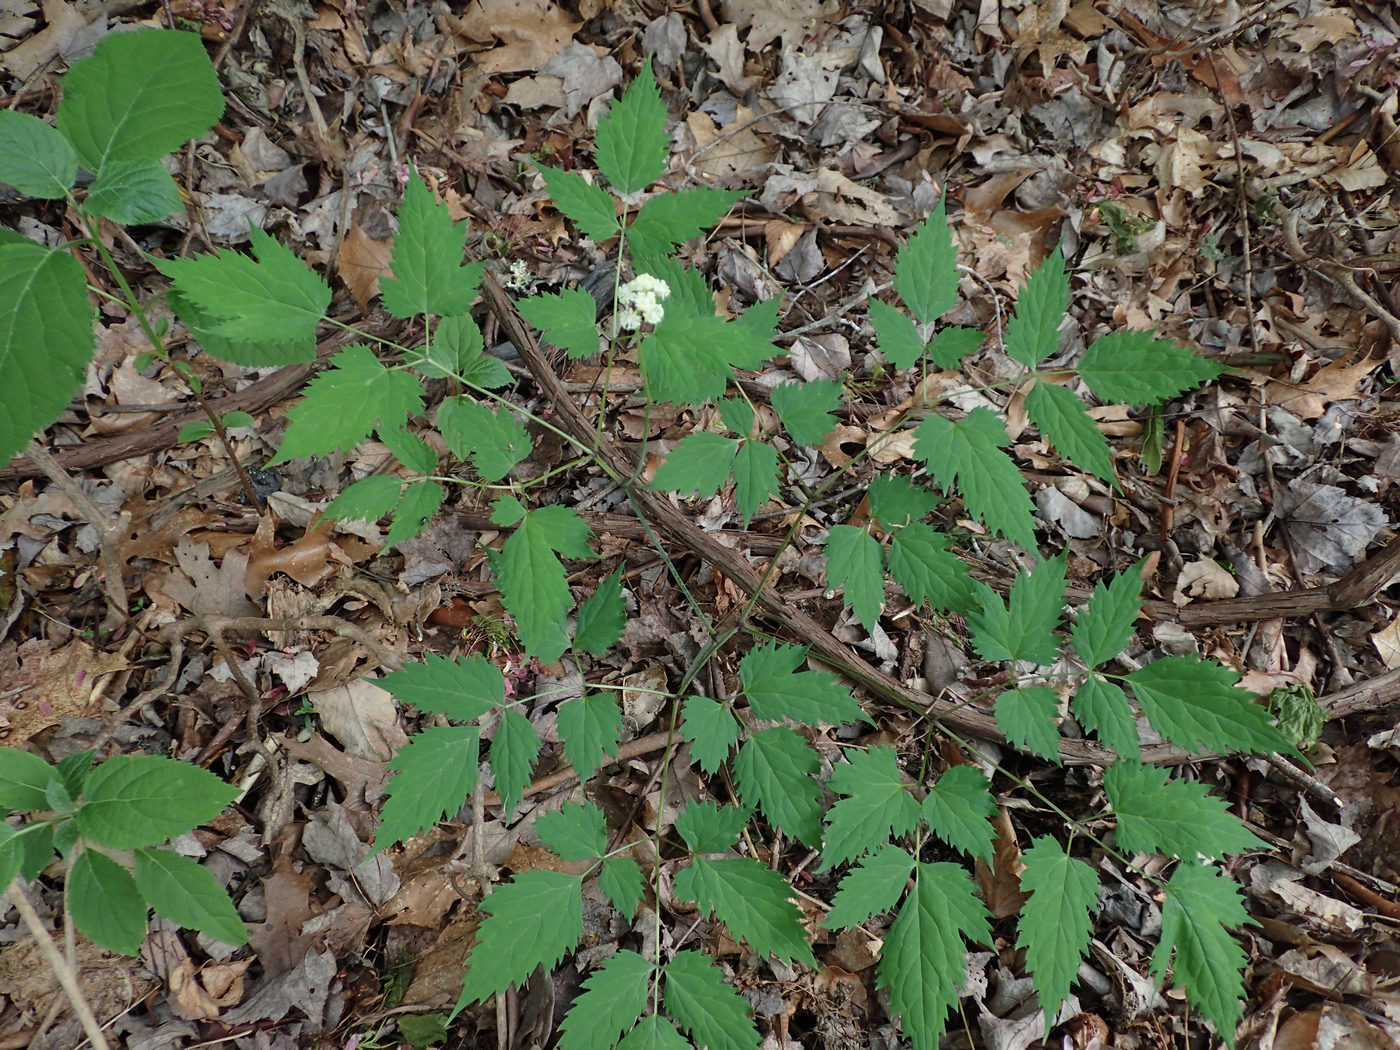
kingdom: Plantae
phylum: Tracheophyta
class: Magnoliopsida
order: Ranunculales
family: Ranunculaceae
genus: Actaea
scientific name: Actaea pachypoda
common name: Doll's-eyes
